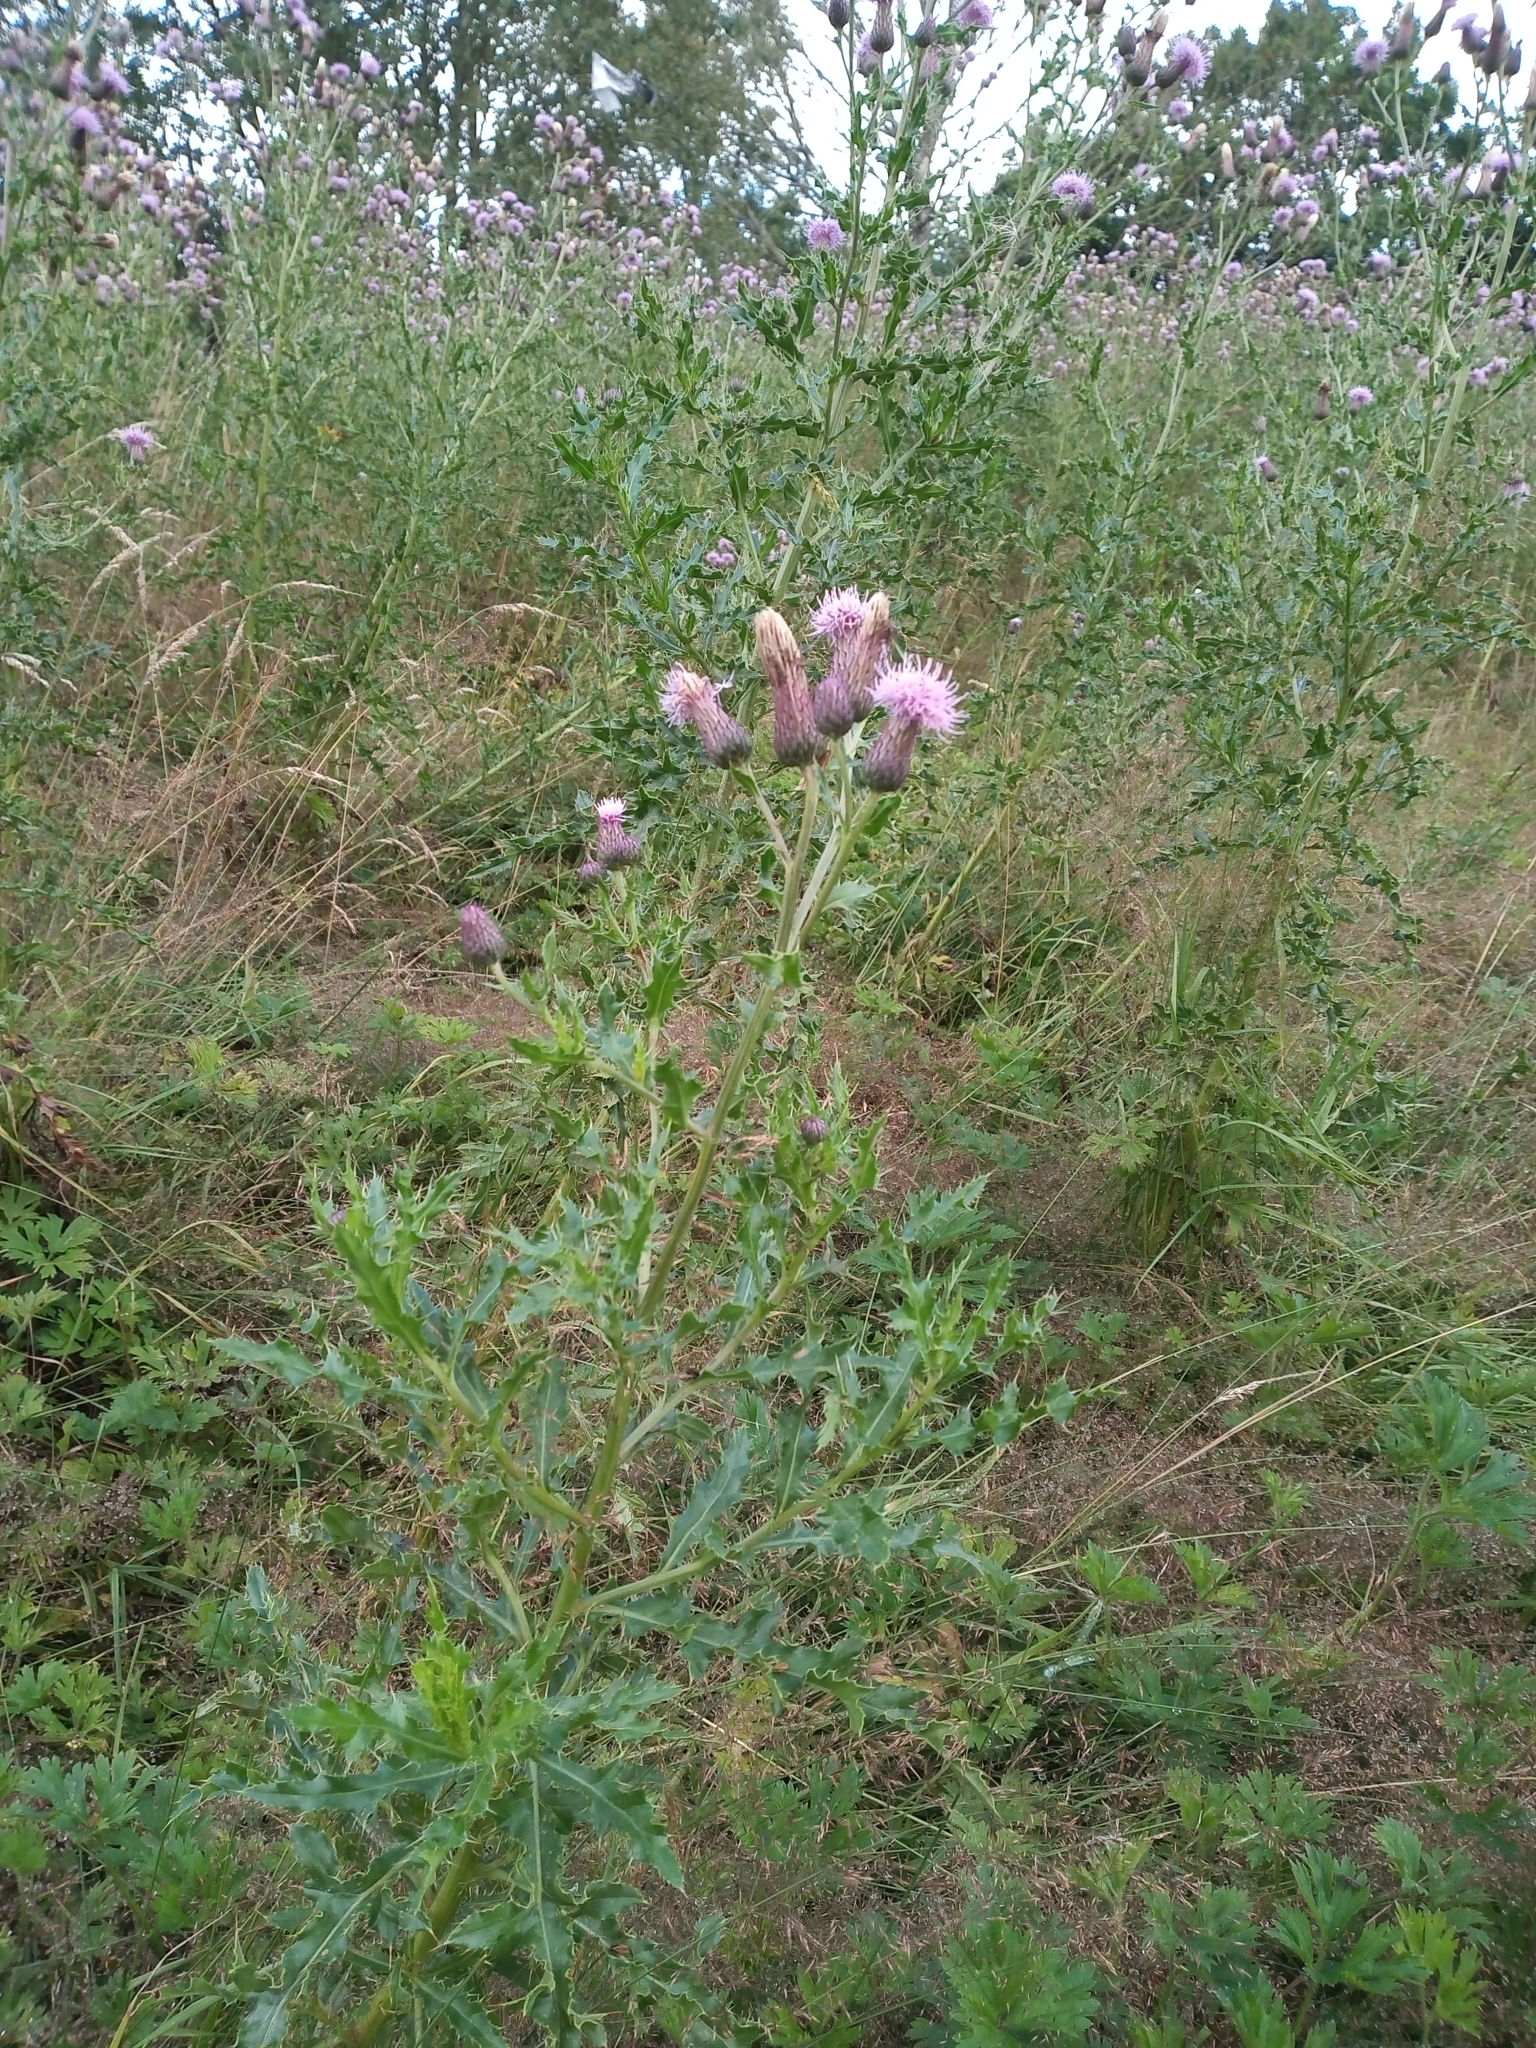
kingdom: Plantae
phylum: Tracheophyta
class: Magnoliopsida
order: Asterales
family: Asteraceae
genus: Cirsium
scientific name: Cirsium arvense
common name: Creeping thistle
